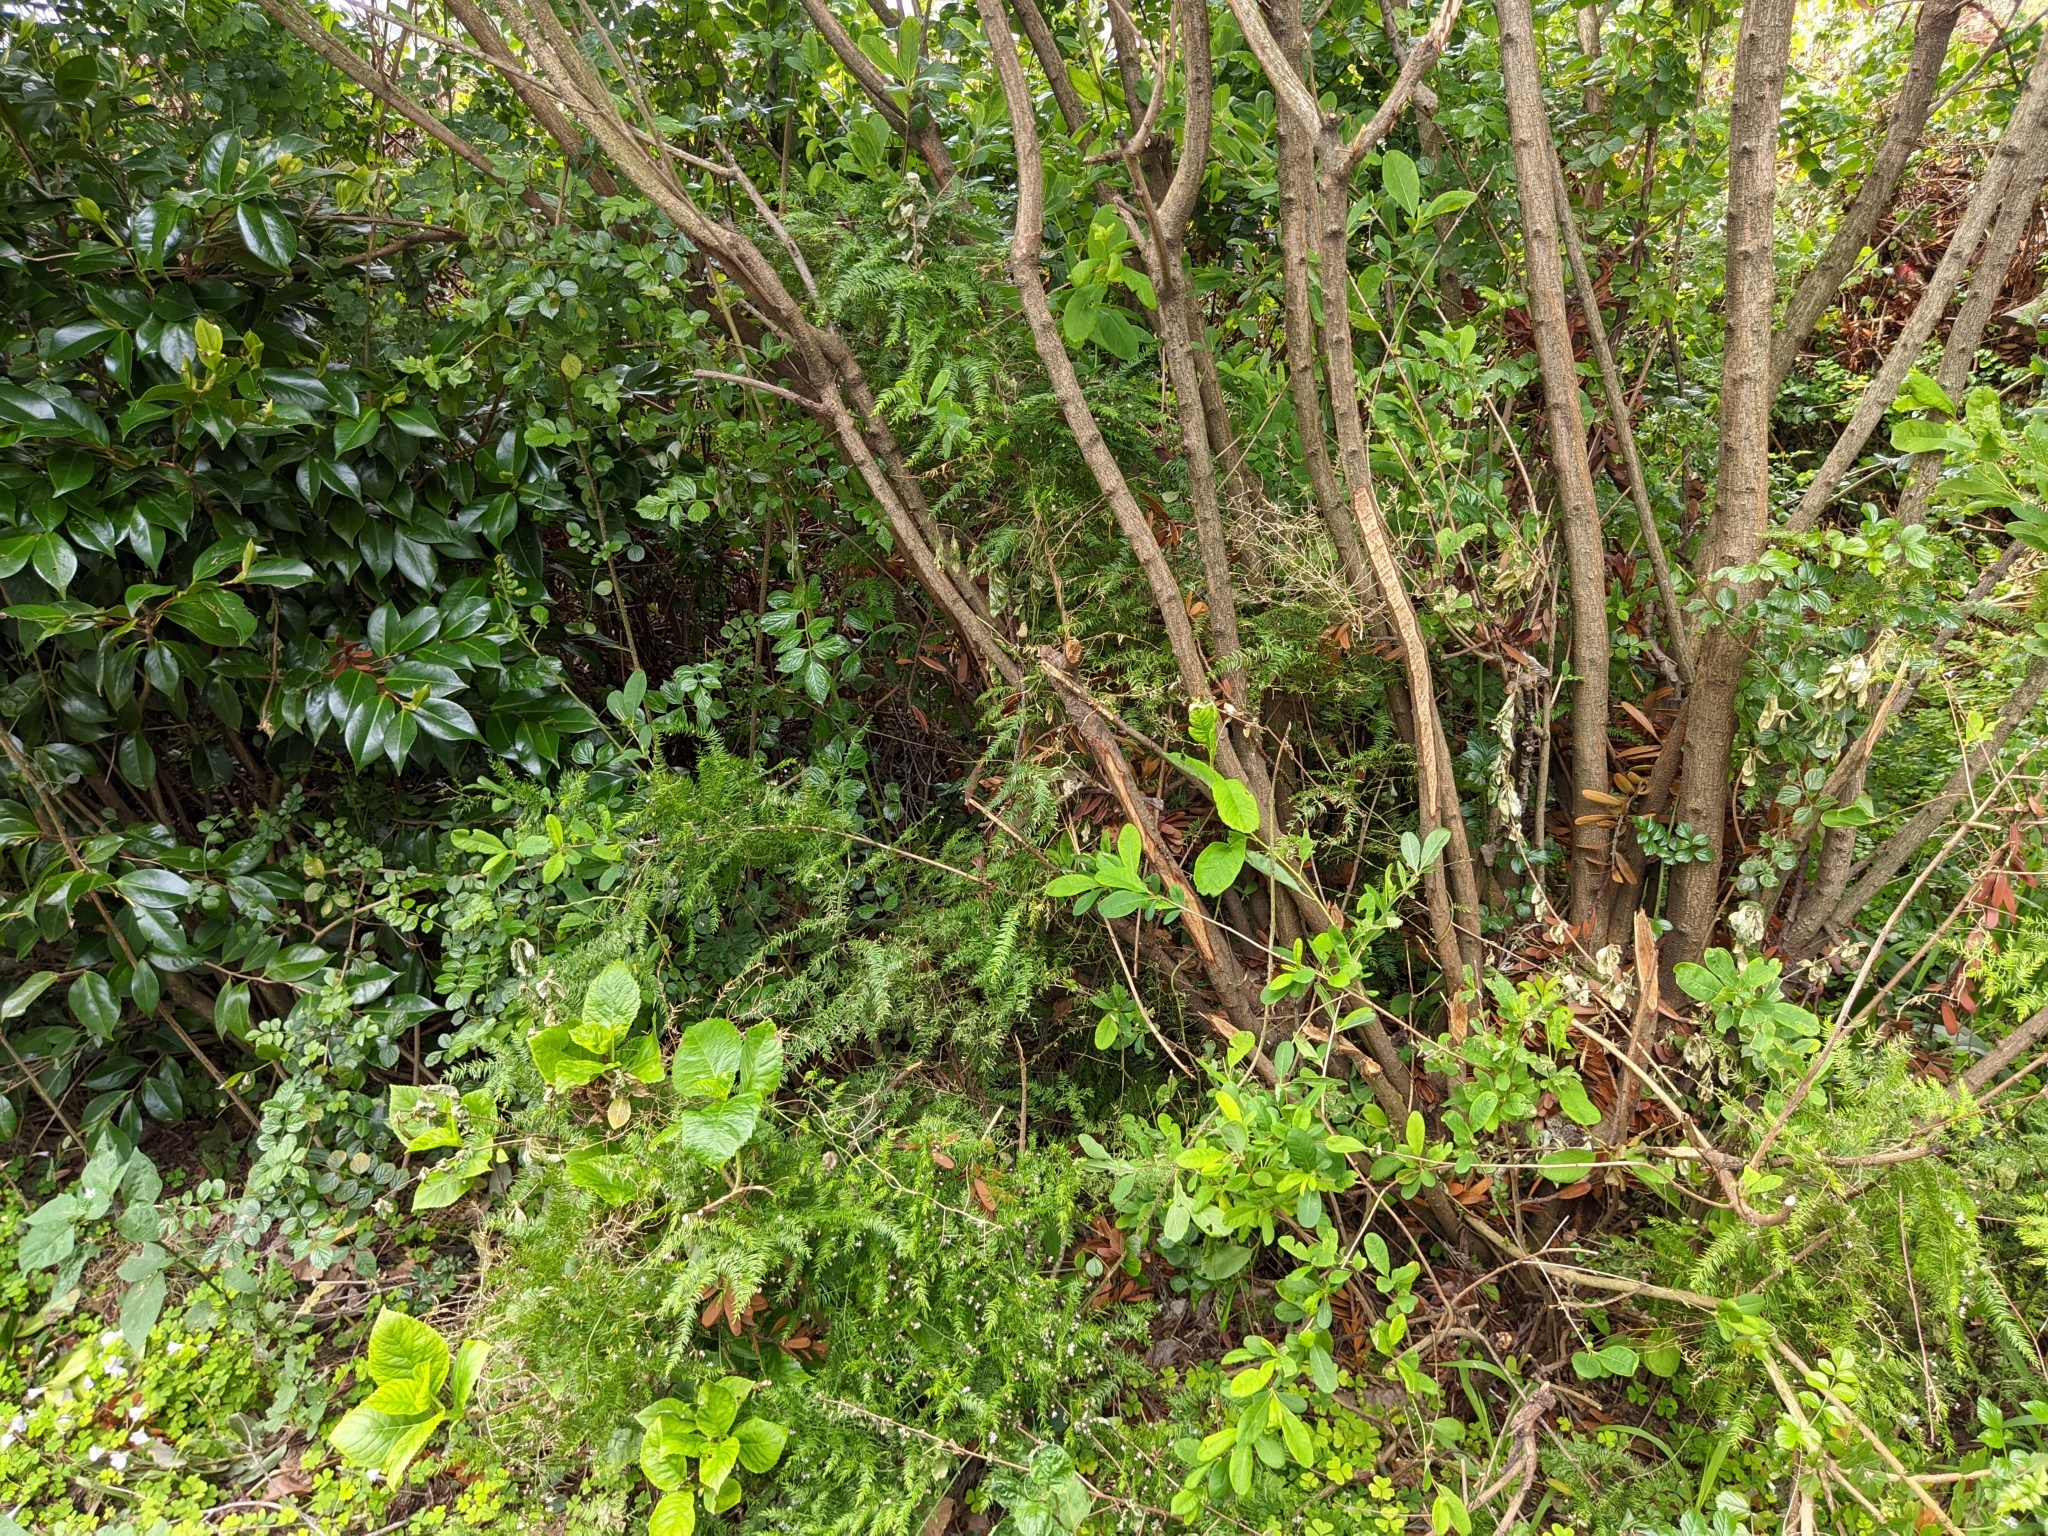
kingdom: Plantae
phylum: Tracheophyta
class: Liliopsida
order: Asparagales
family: Asparagaceae
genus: Asparagus
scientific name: Asparagus scandens
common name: Asparagus-fern
